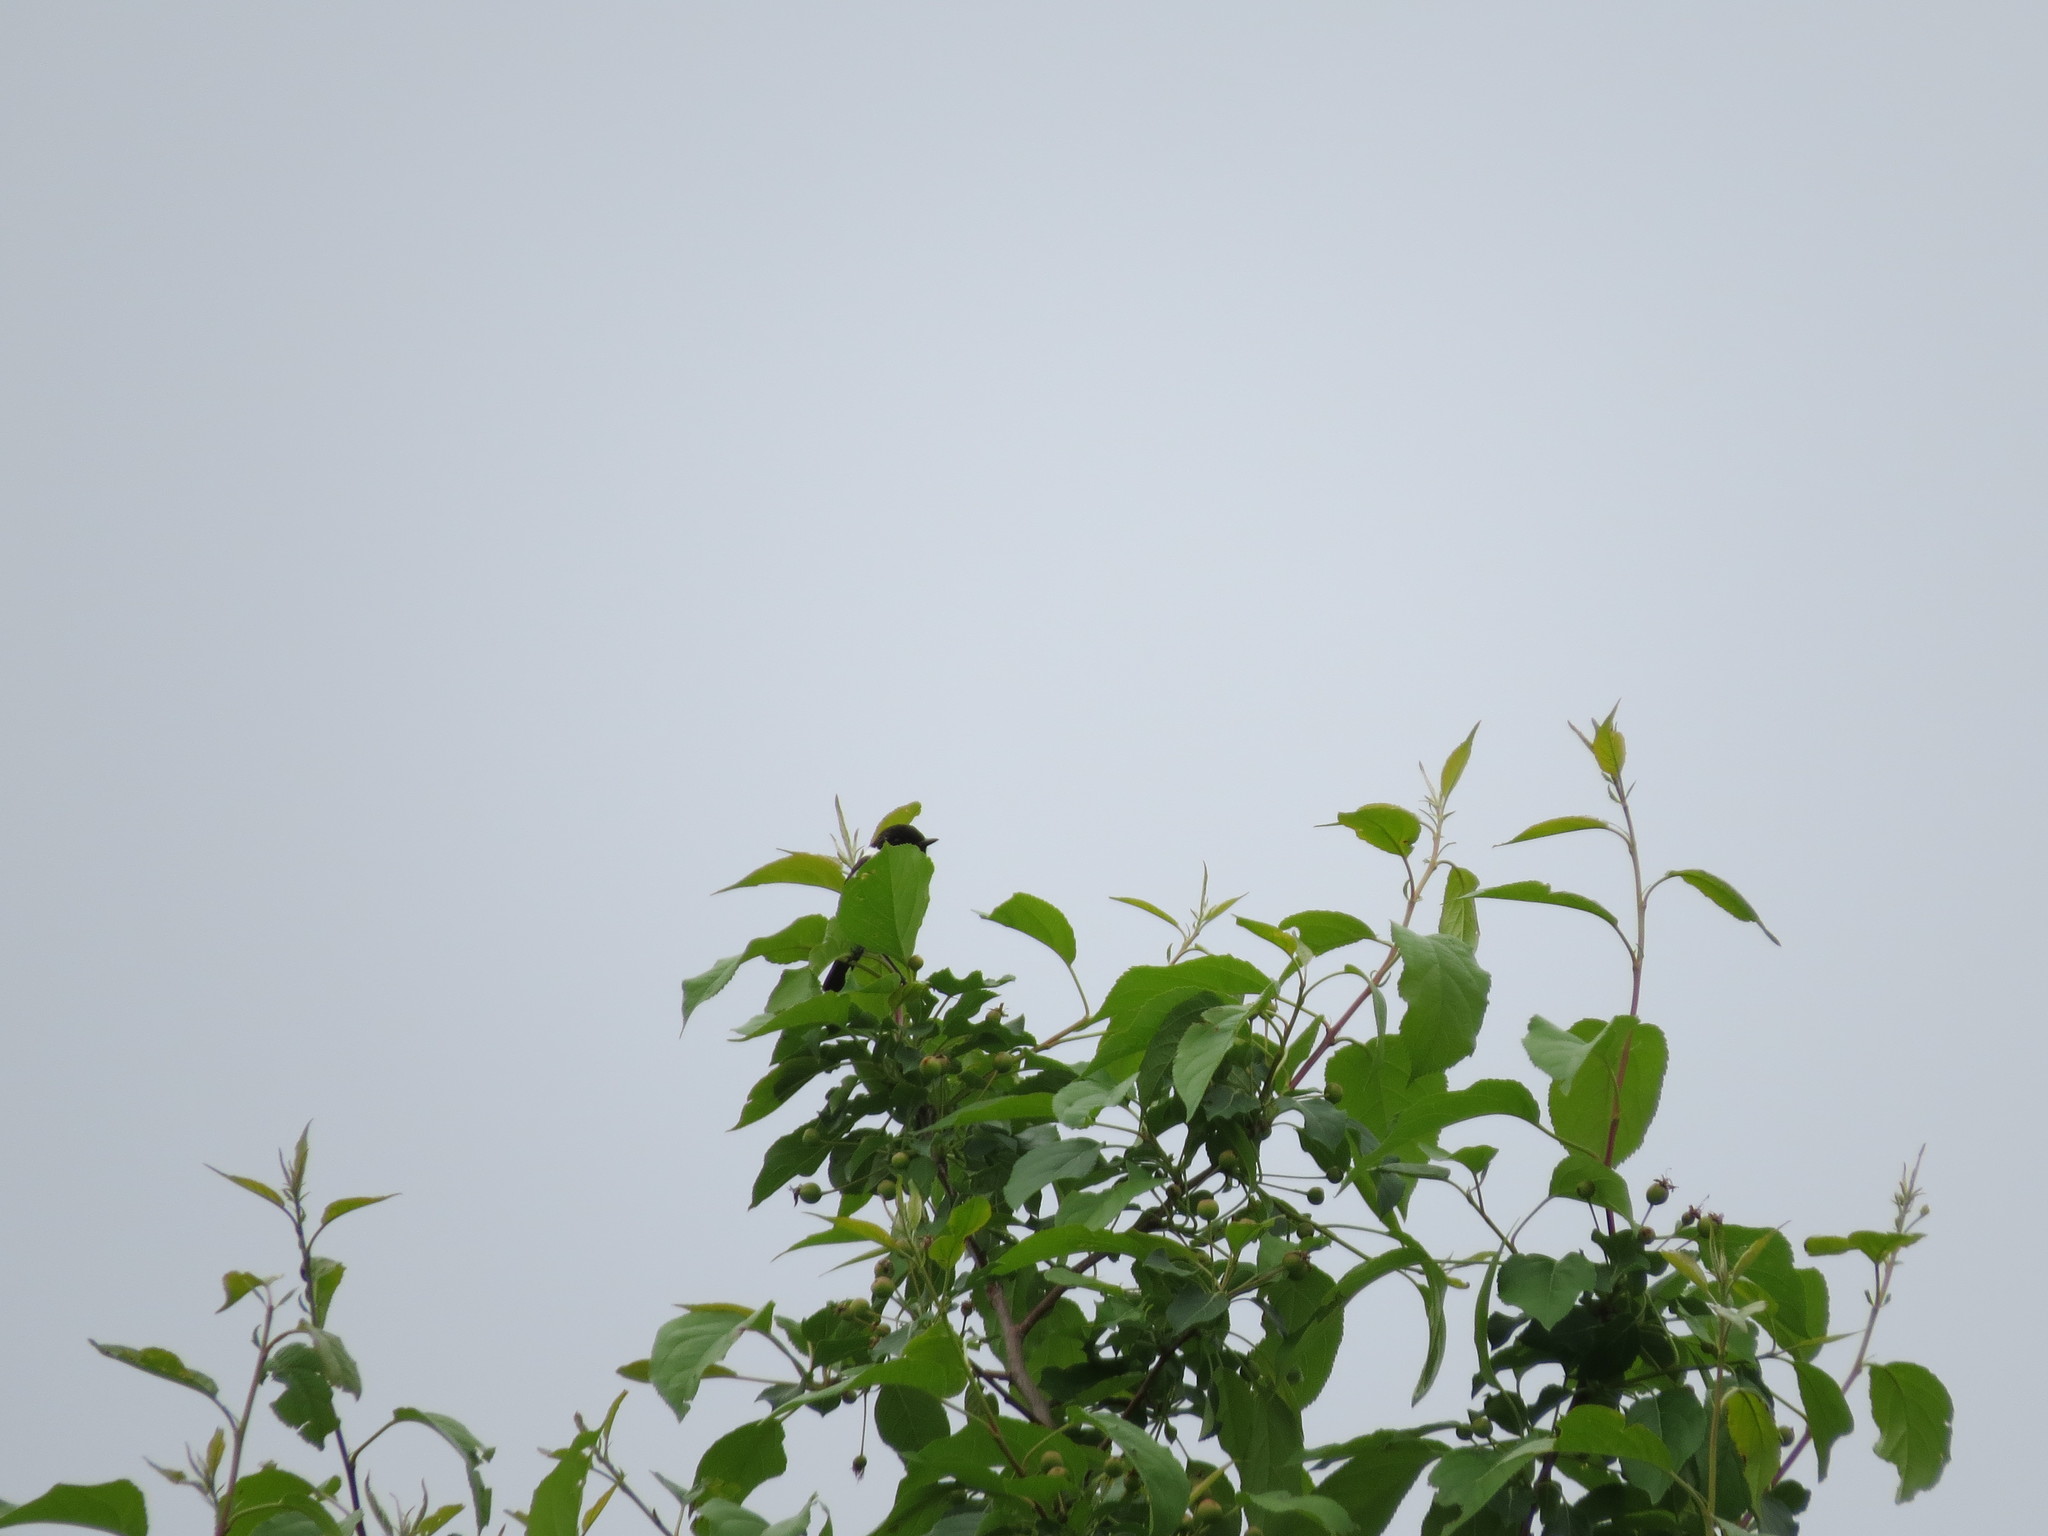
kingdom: Animalia
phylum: Chordata
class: Aves
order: Passeriformes
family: Muscicapidae
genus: Saxicola
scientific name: Saxicola maurus
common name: Siberian stonechat
